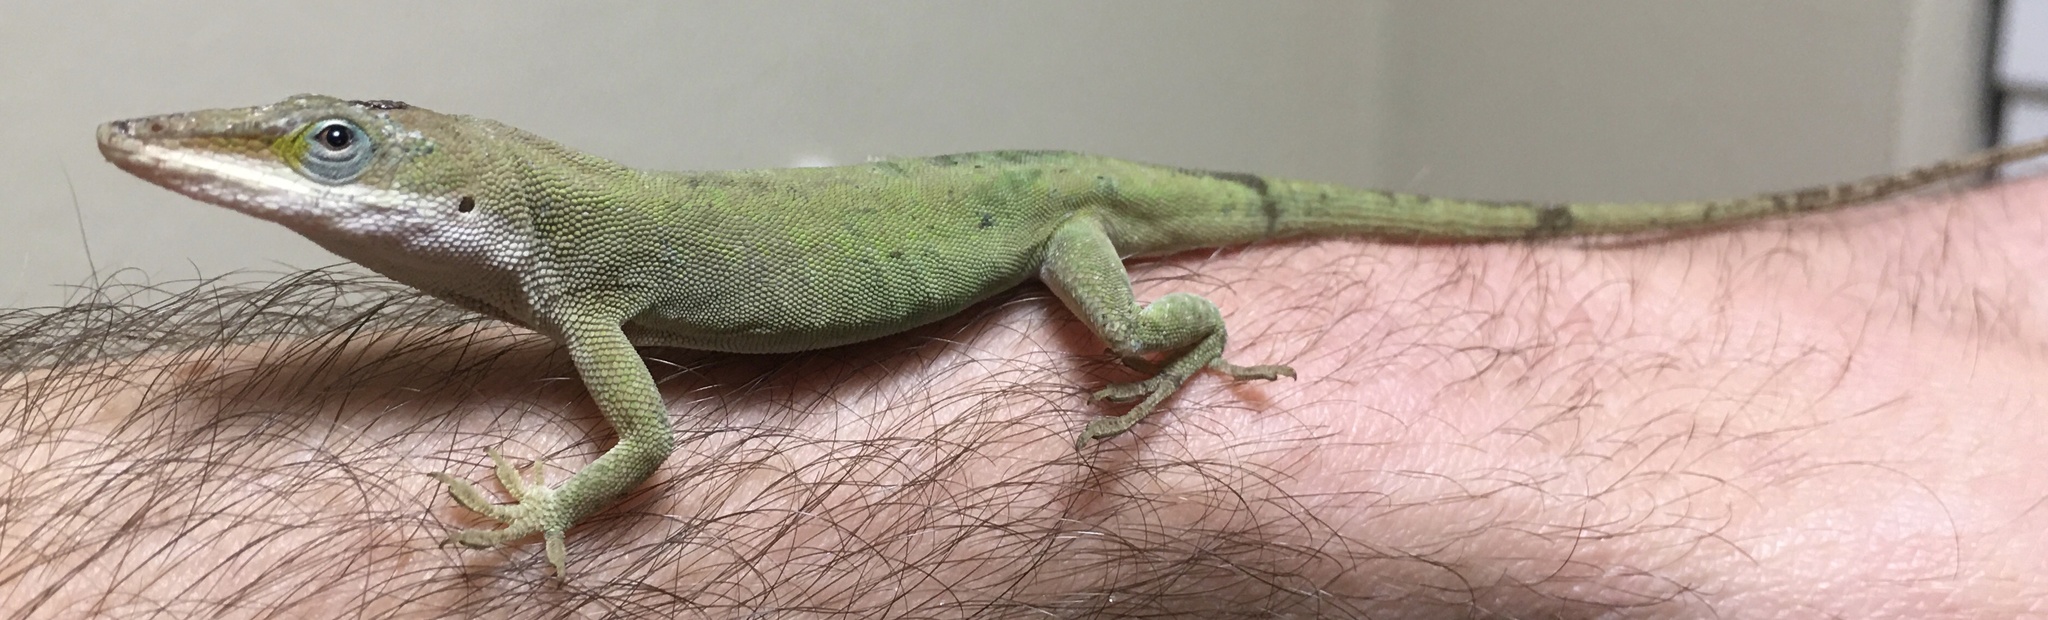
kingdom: Animalia
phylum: Chordata
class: Squamata
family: Dactyloidae
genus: Anolis
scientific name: Anolis carolinensis
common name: Green anole
